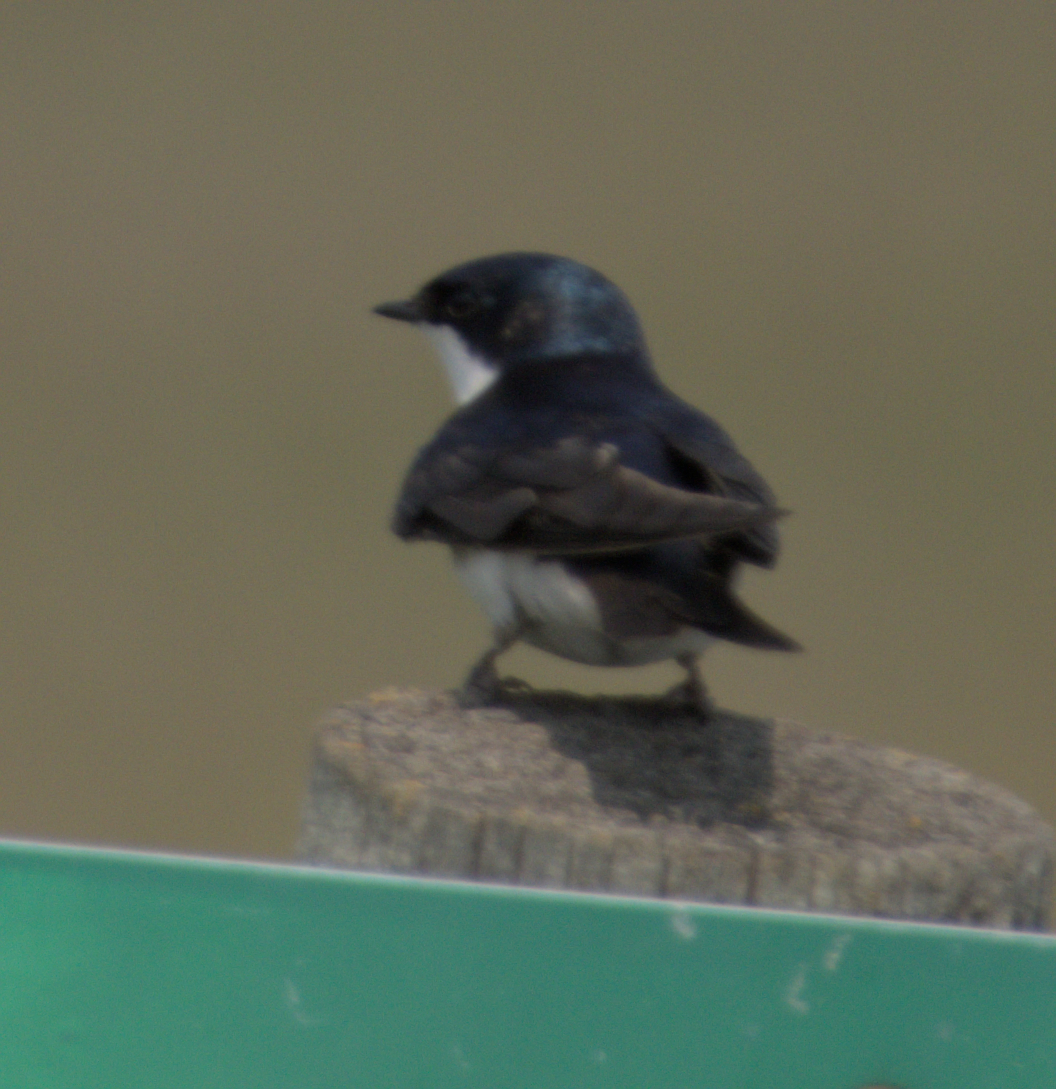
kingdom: Animalia
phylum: Chordata
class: Aves
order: Passeriformes
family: Hirundinidae
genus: Tachycineta
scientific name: Tachycineta bicolor
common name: Tree swallow
